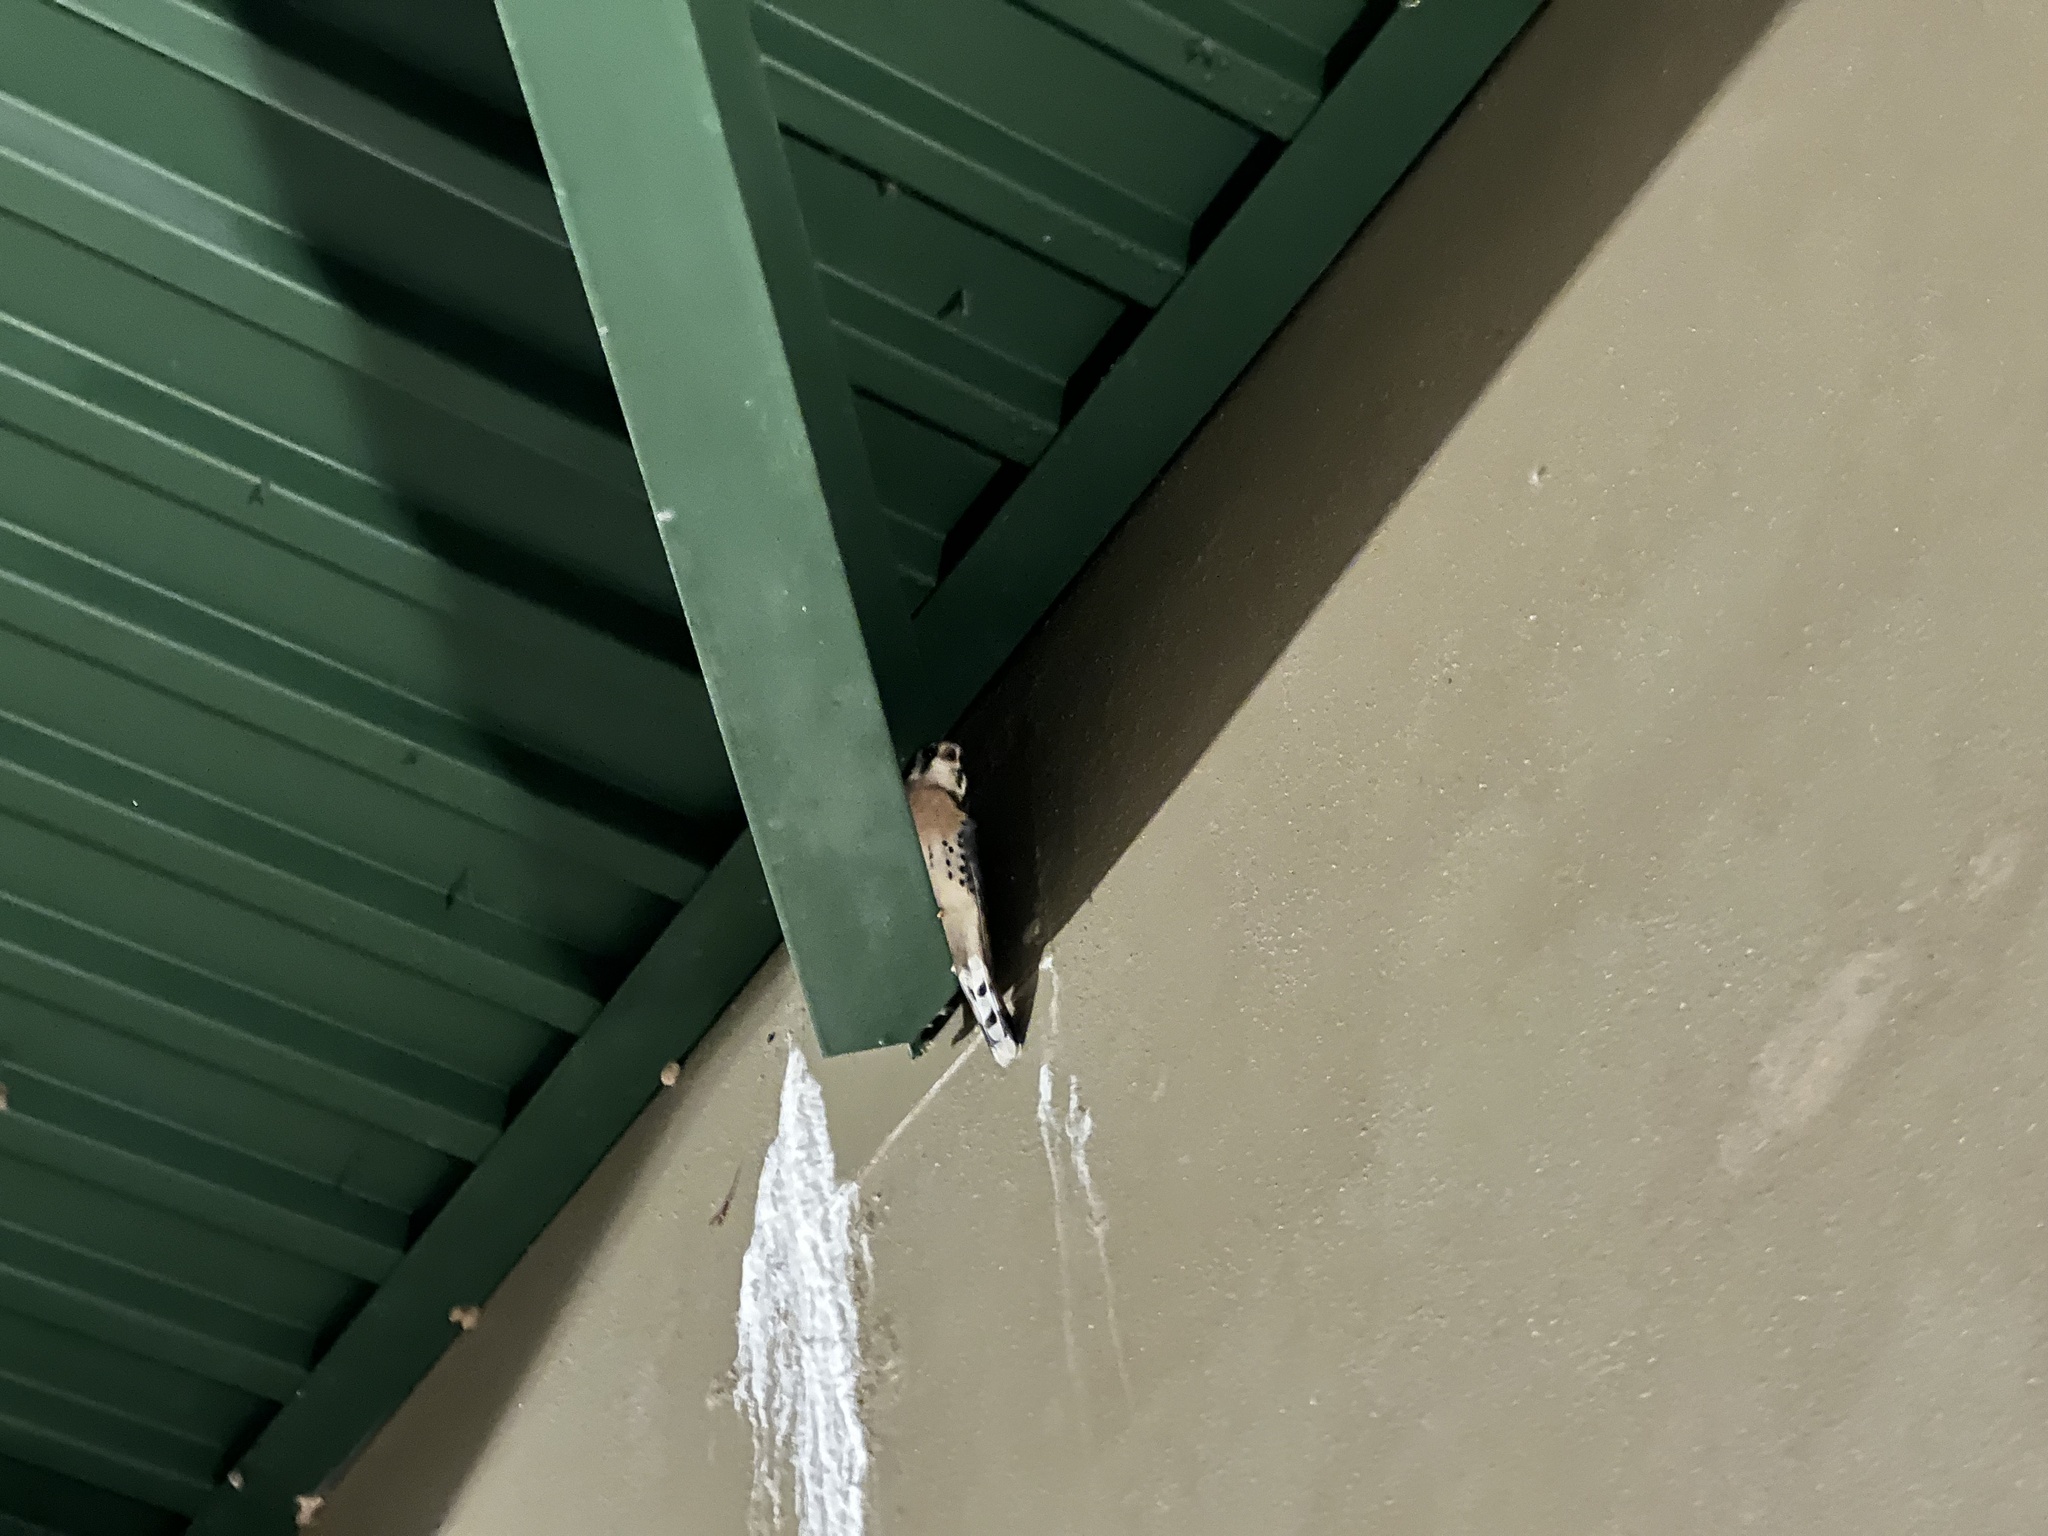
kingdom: Animalia
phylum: Chordata
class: Aves
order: Falconiformes
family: Falconidae
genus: Falco
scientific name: Falco sparverius
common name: American kestrel
